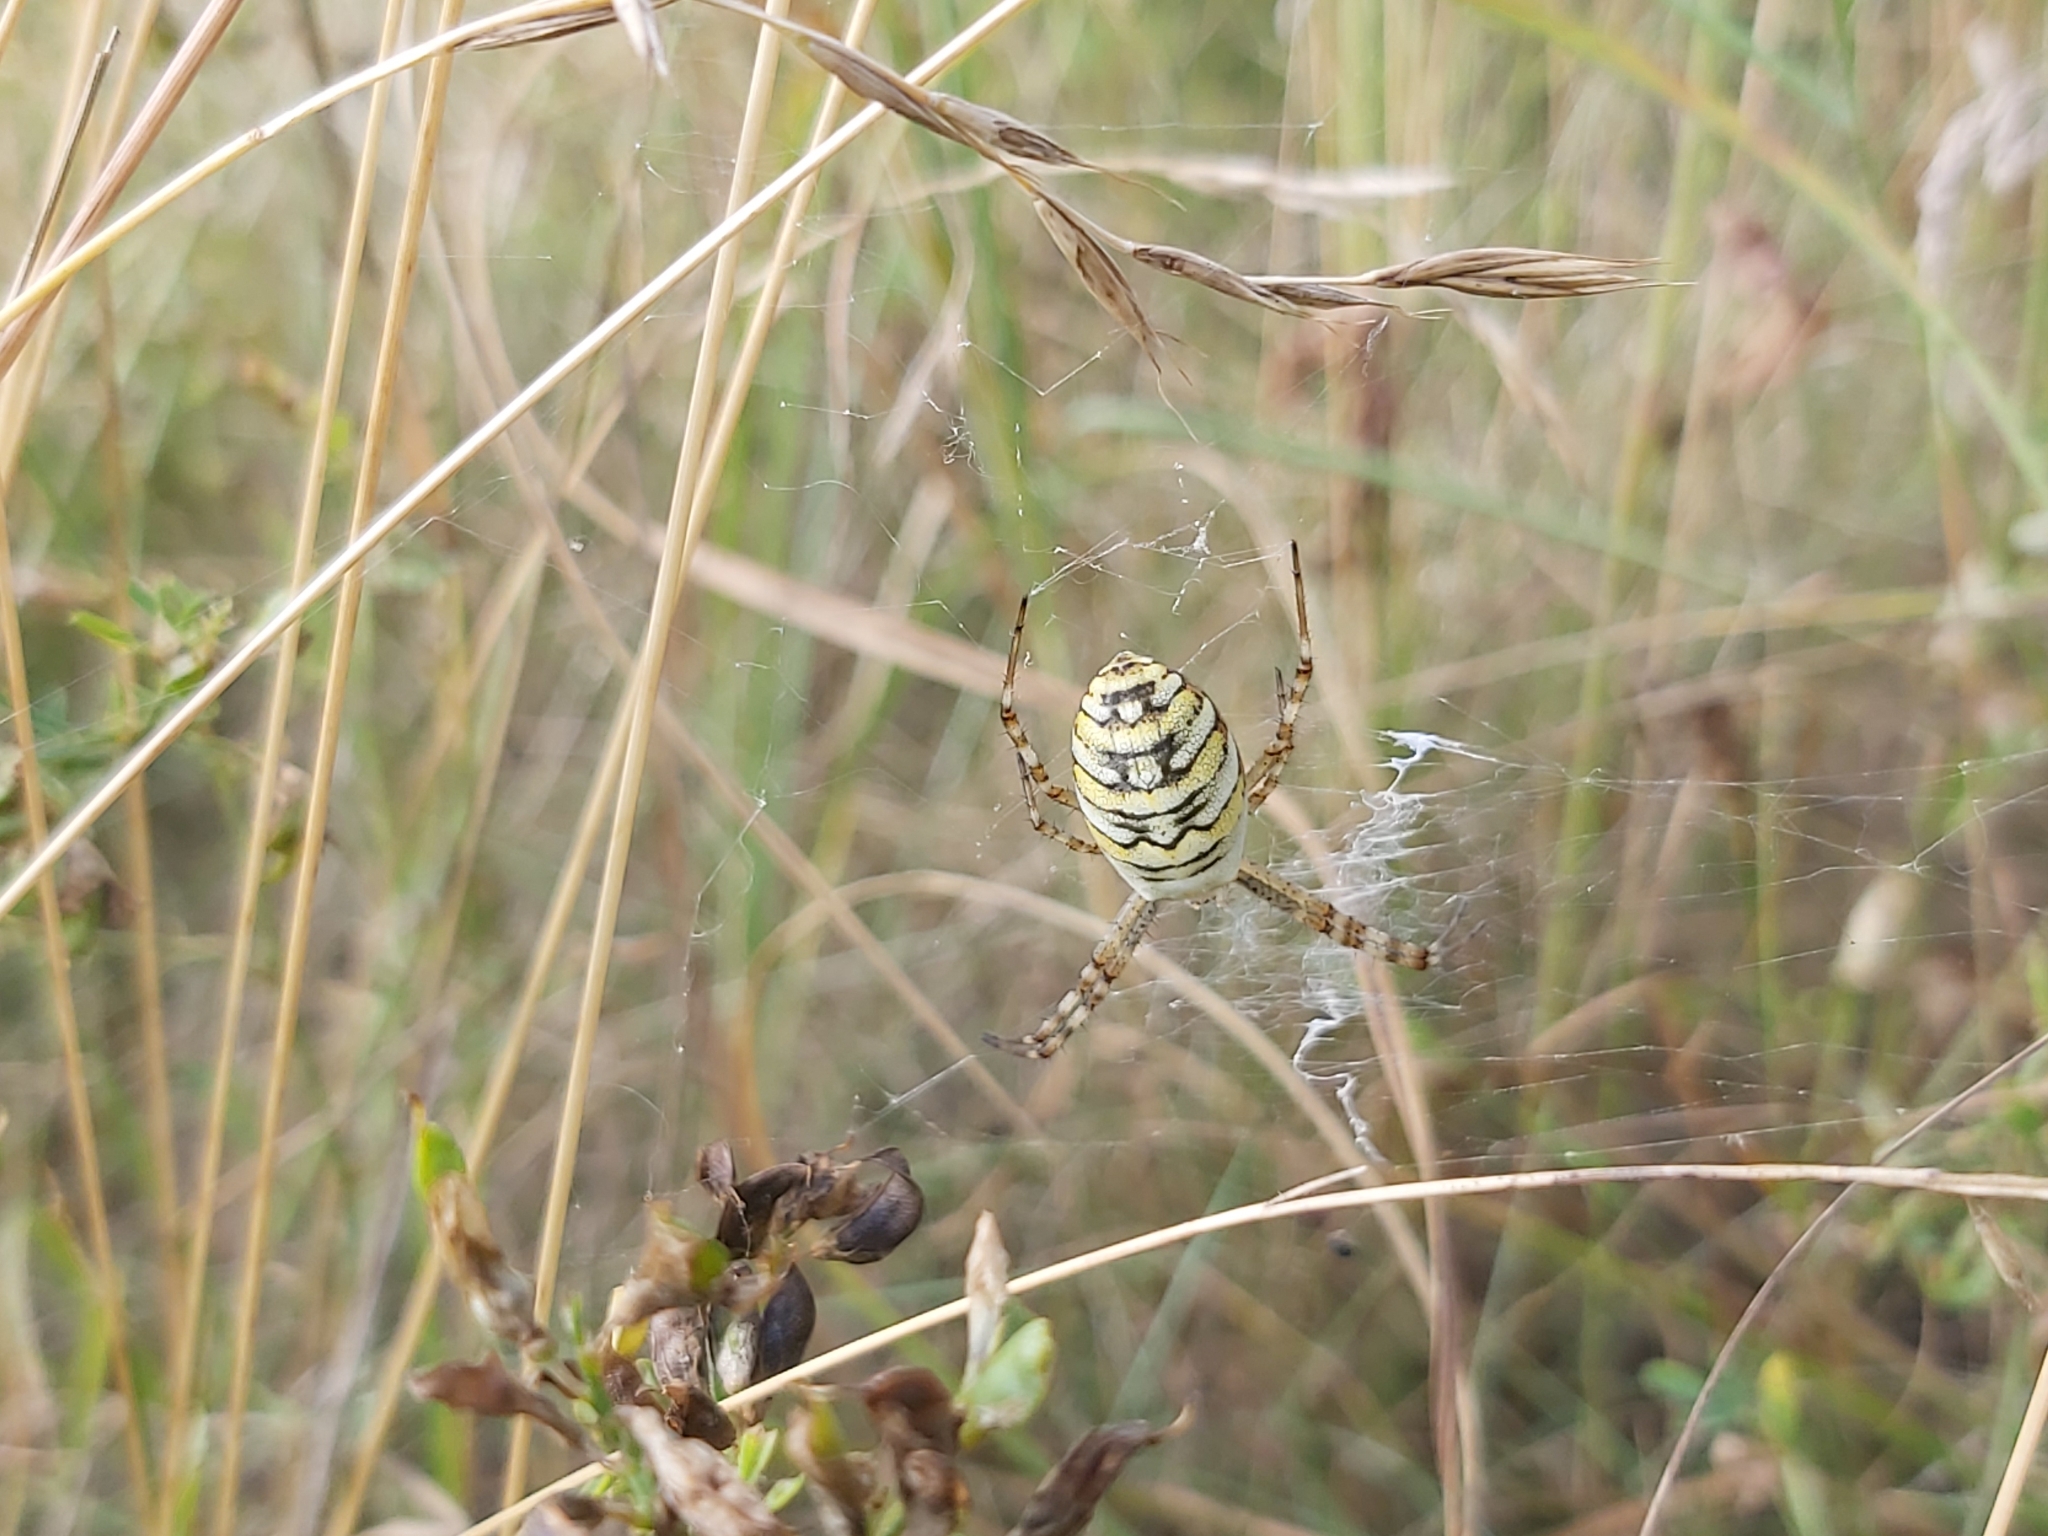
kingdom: Animalia
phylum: Arthropoda
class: Arachnida
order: Araneae
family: Araneidae
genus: Argiope
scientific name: Argiope bruennichi
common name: Wasp spider
